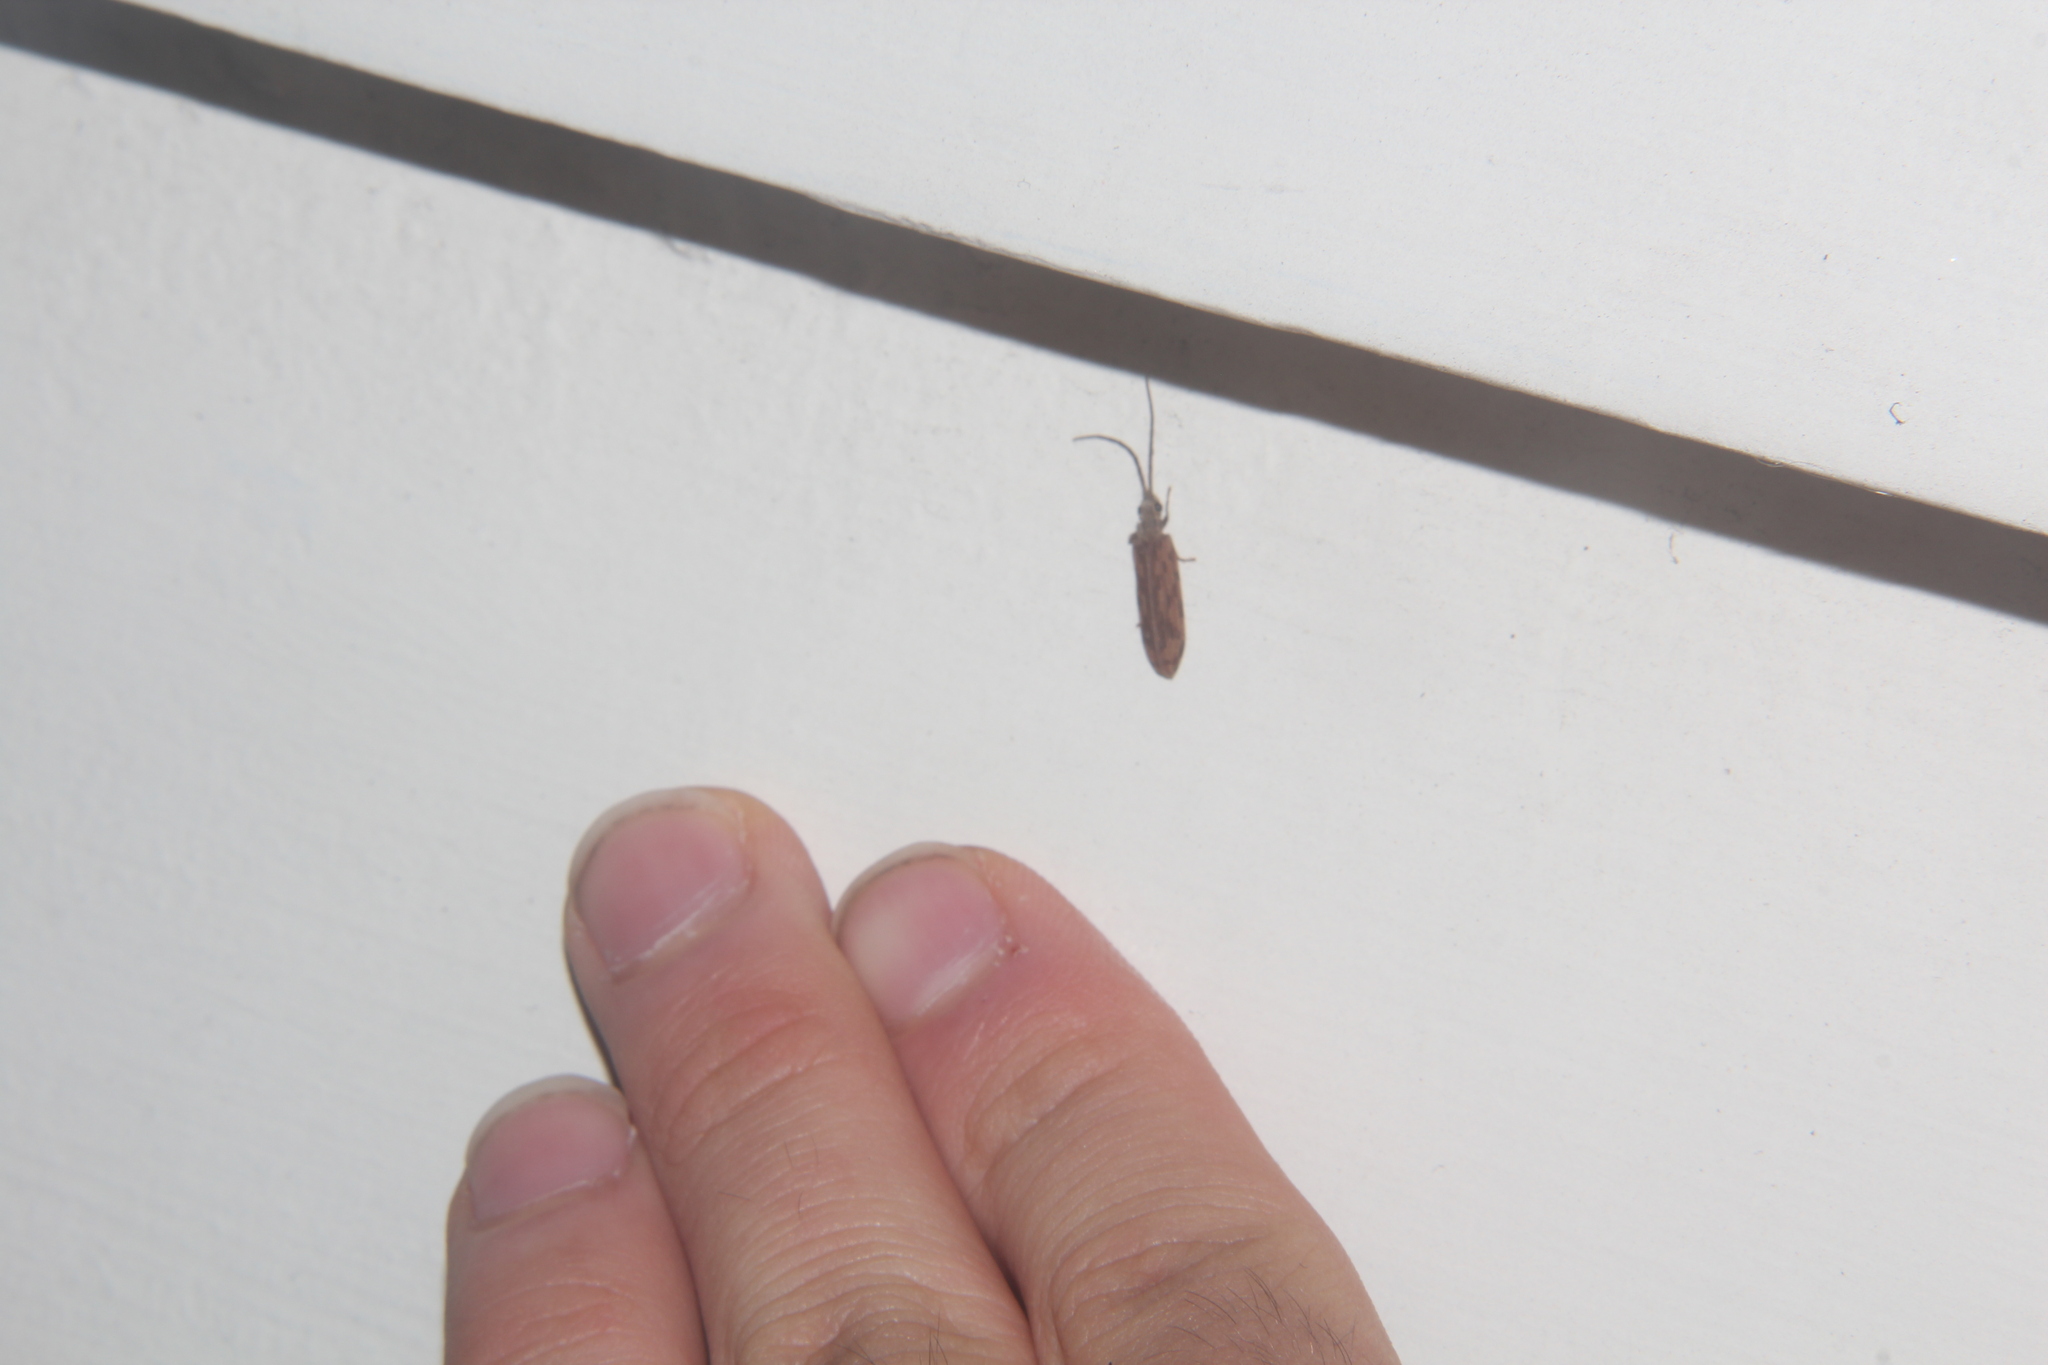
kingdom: Animalia
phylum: Arthropoda
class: Insecta
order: Coleoptera
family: Cupedidae
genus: Distocupes
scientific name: Distocupes varians
